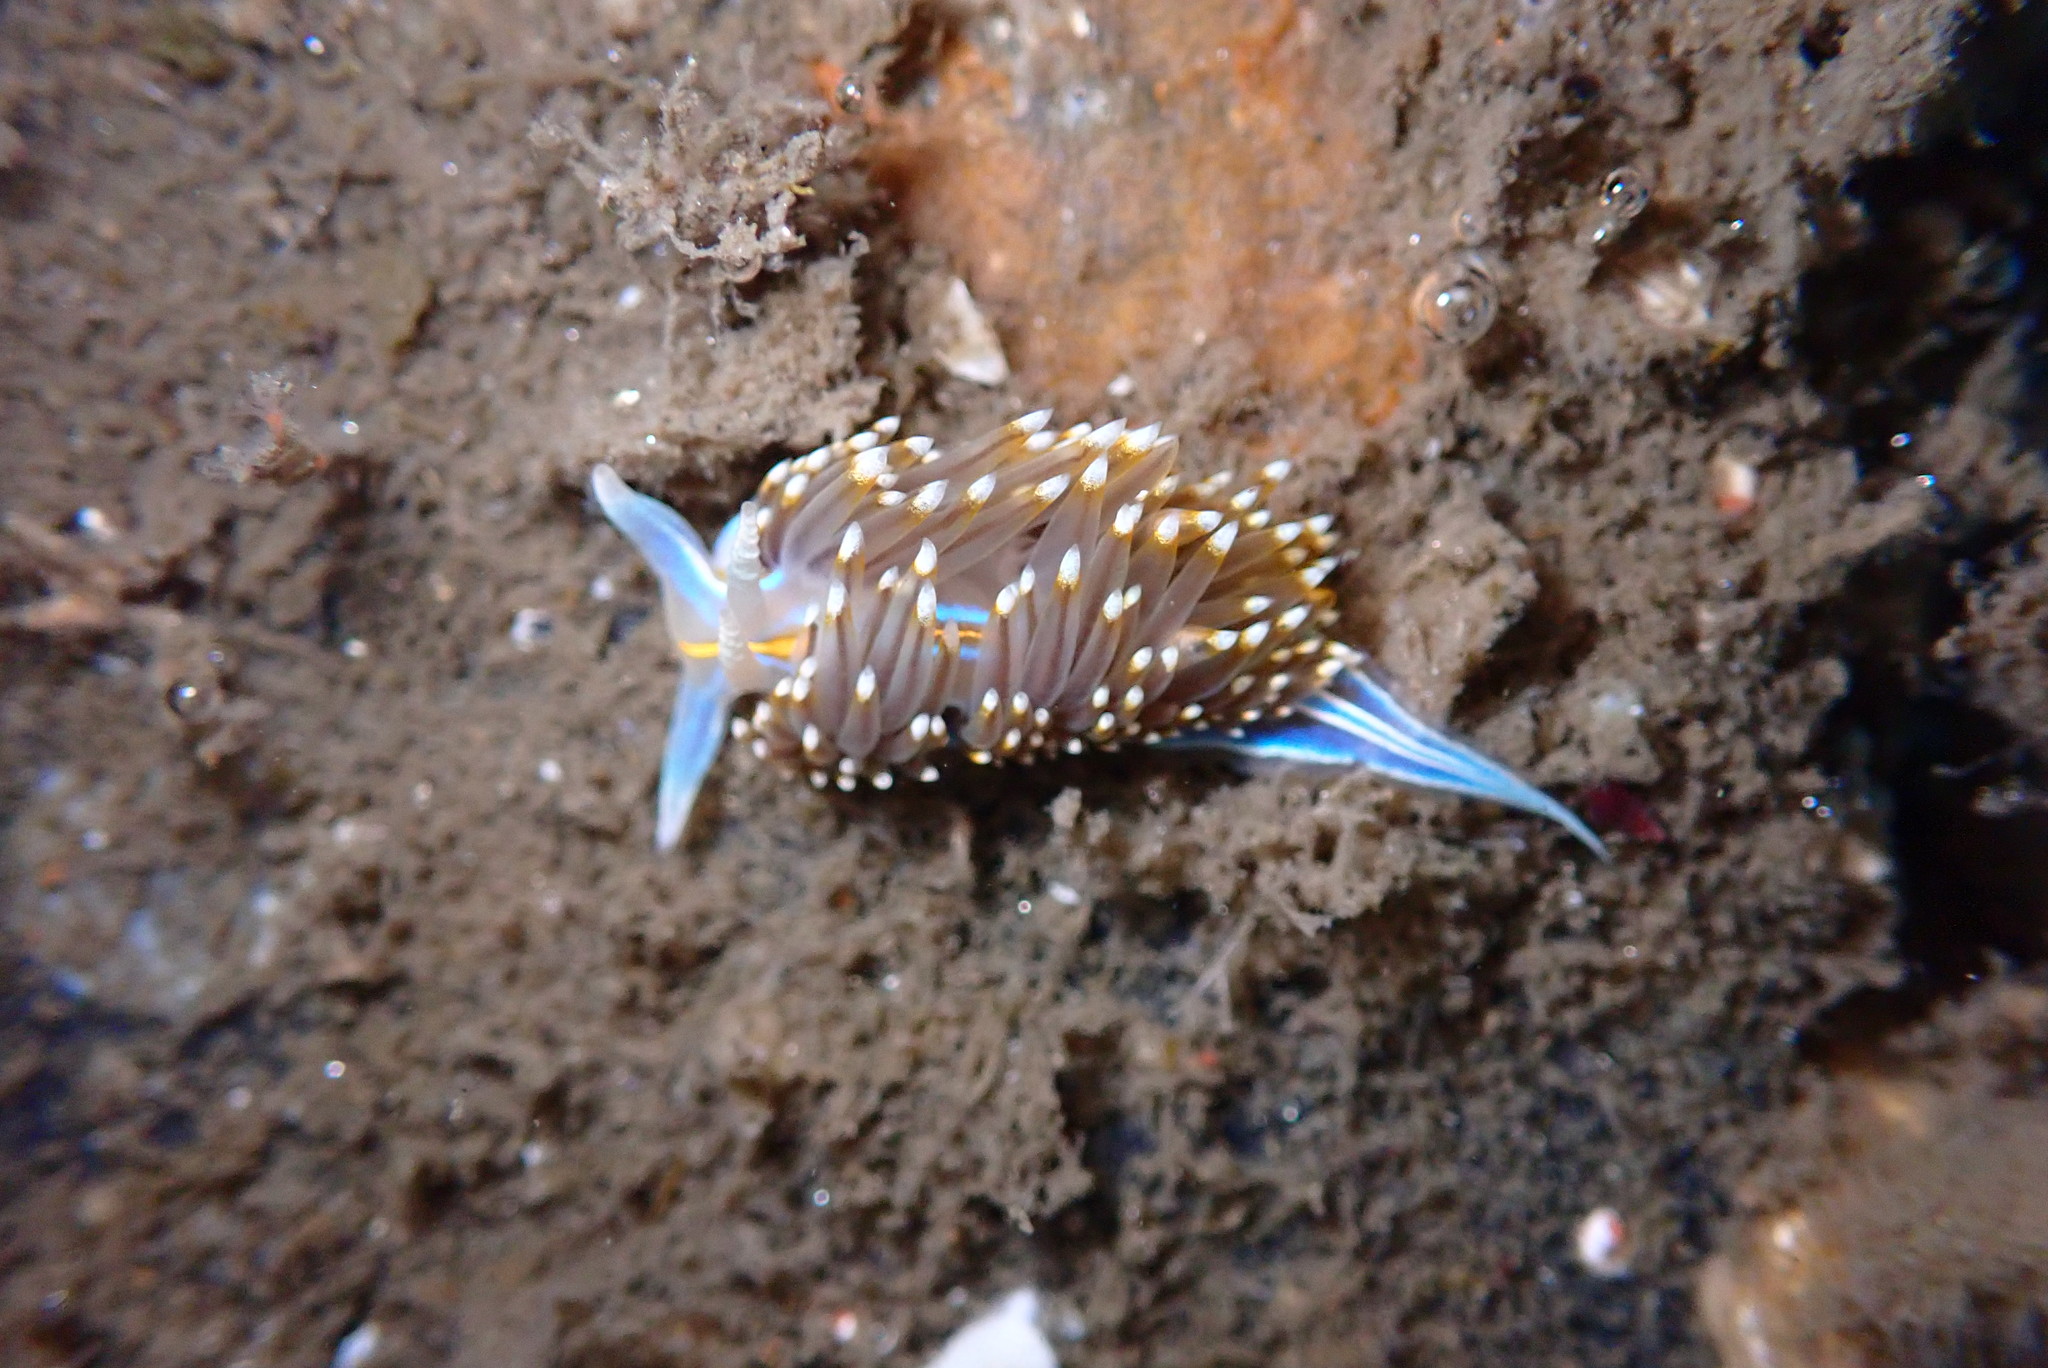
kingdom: Animalia
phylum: Mollusca
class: Gastropoda
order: Nudibranchia
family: Myrrhinidae
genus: Hermissenda
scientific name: Hermissenda opalescens
